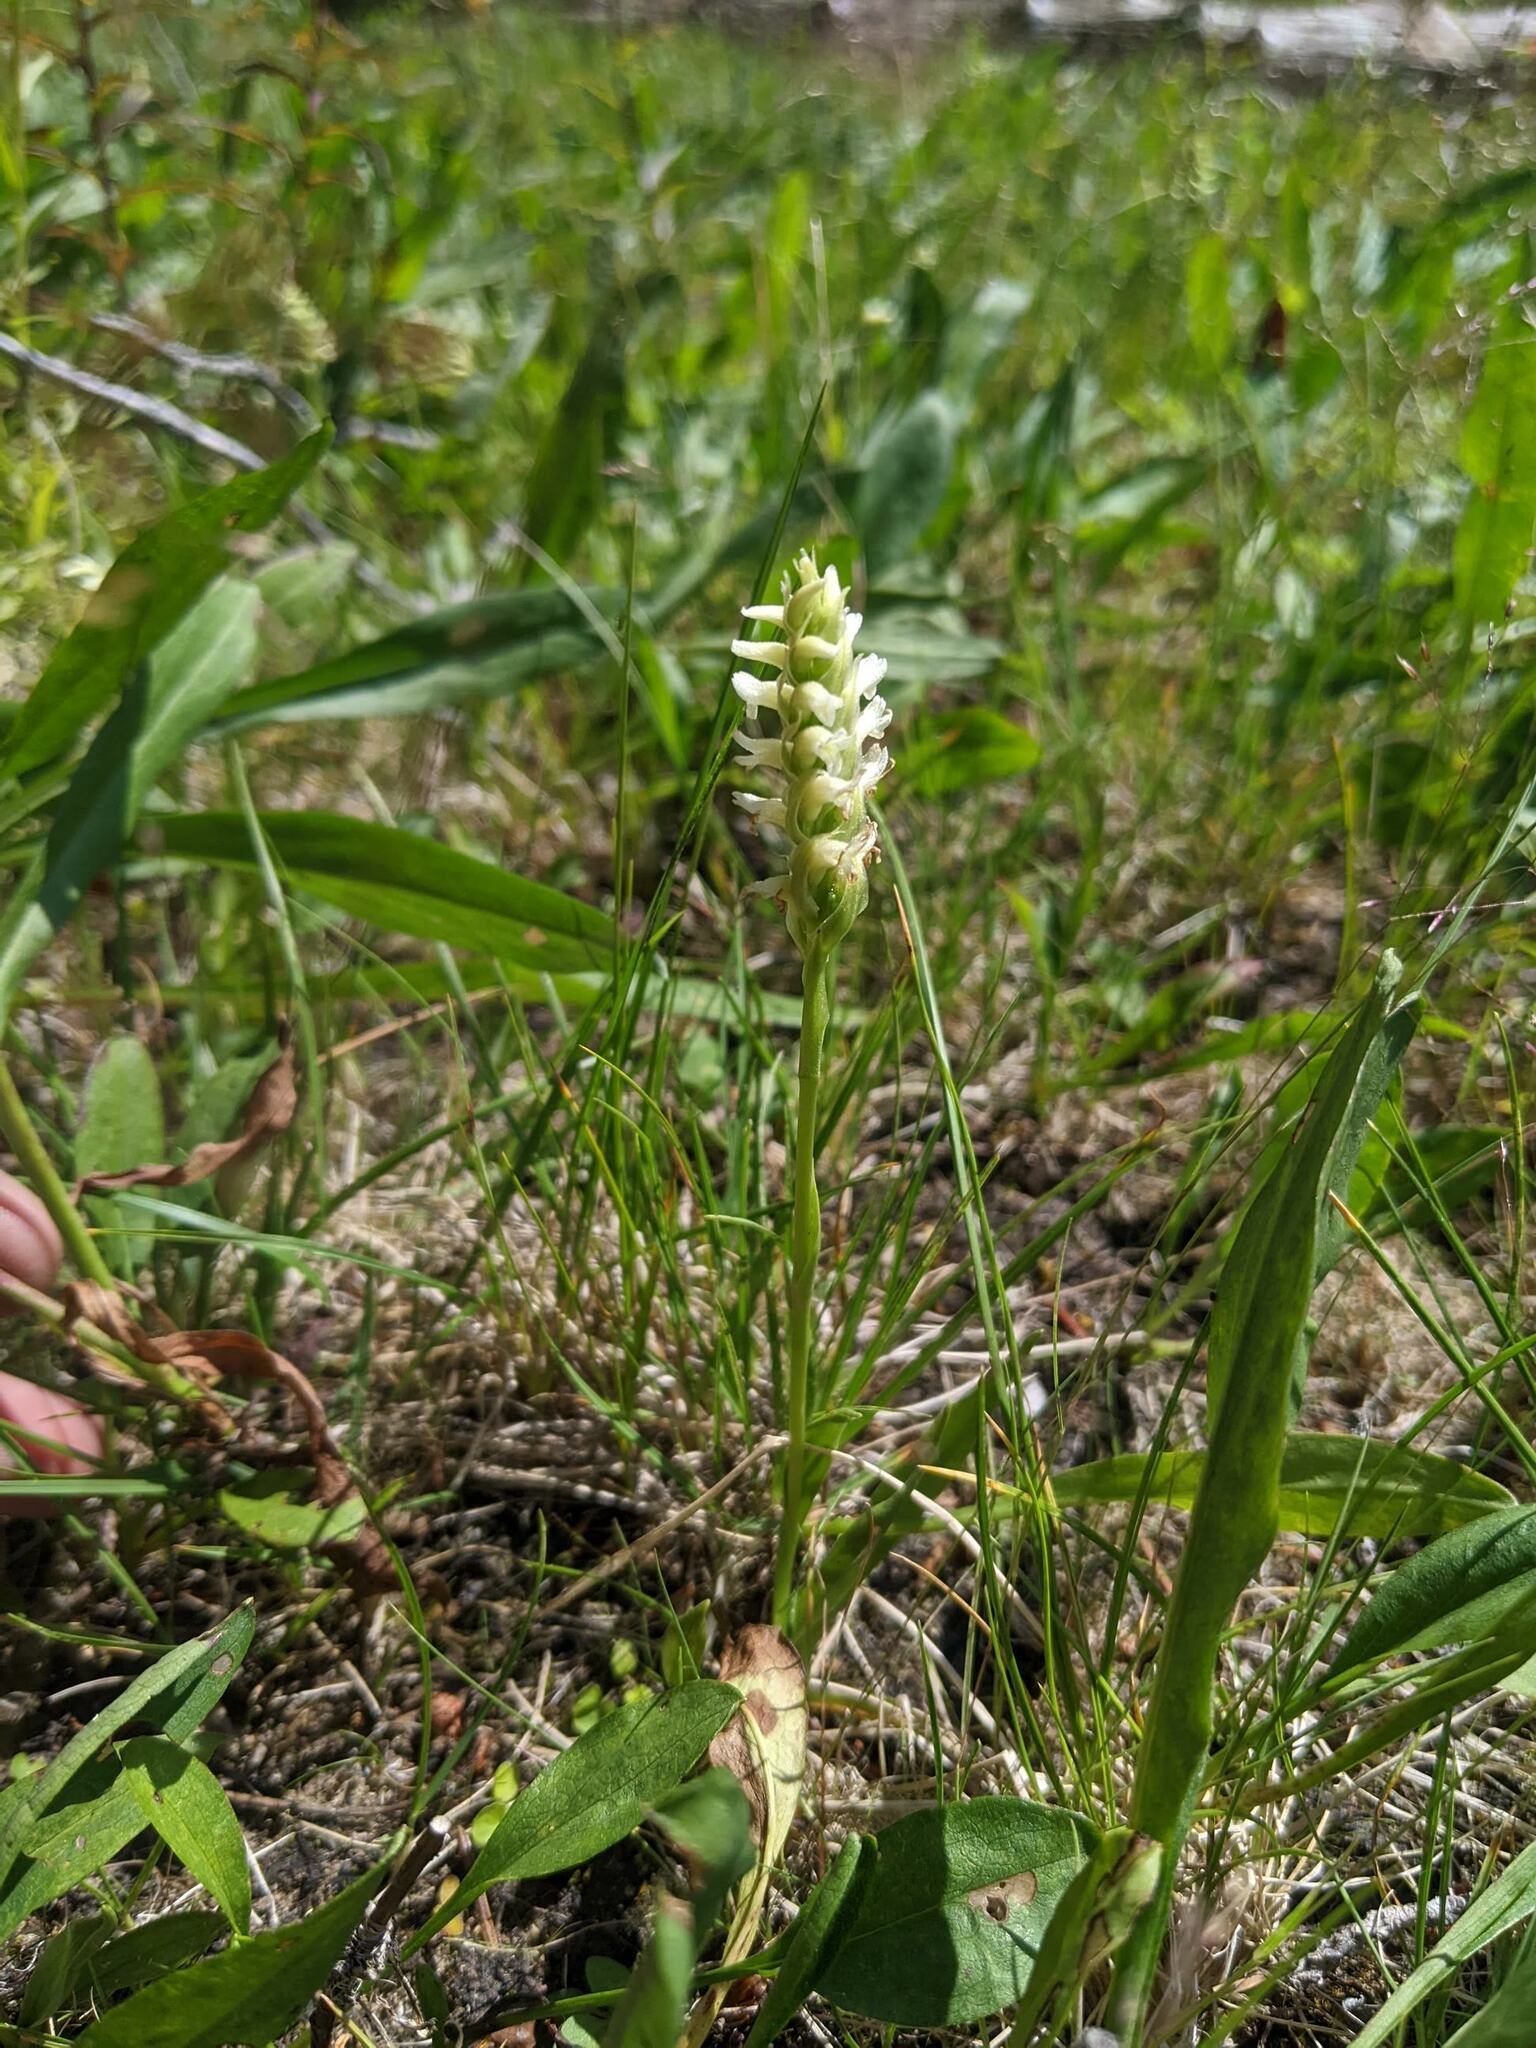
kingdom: Plantae
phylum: Tracheophyta
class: Liliopsida
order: Asparagales
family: Orchidaceae
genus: Spiranthes
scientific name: Spiranthes romanzoffiana
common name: Irish lady's-tresses
